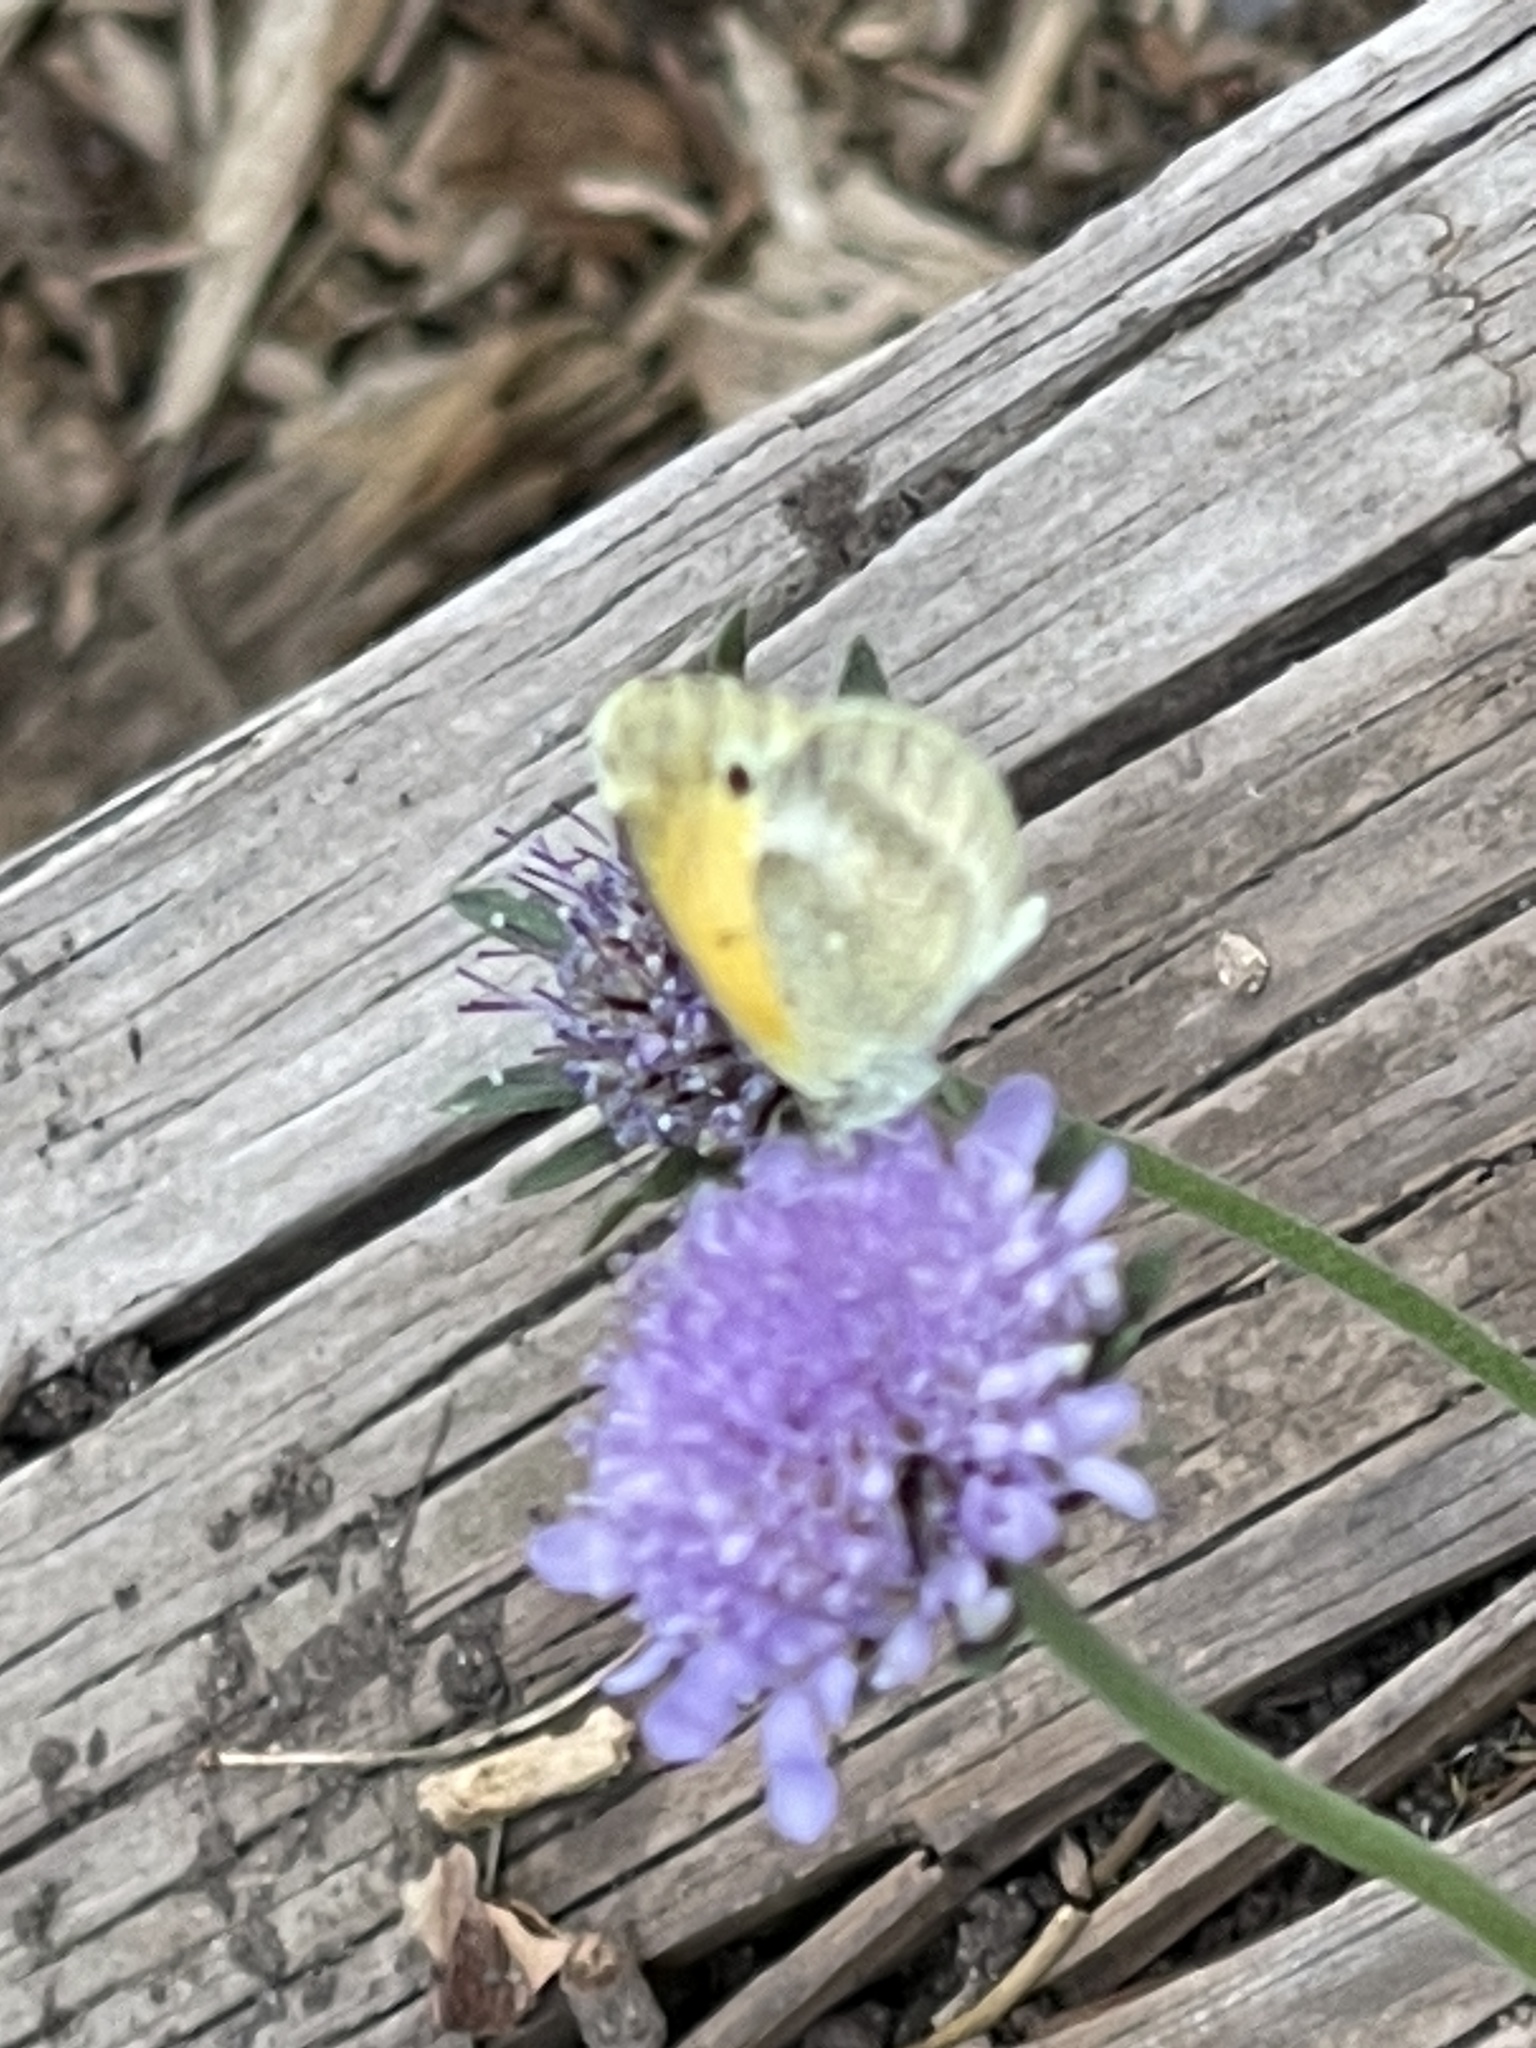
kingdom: Animalia
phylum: Arthropoda
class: Insecta
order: Lepidoptera
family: Pieridae
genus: Nathalis
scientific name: Nathalis iole
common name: Dainty sulphur
